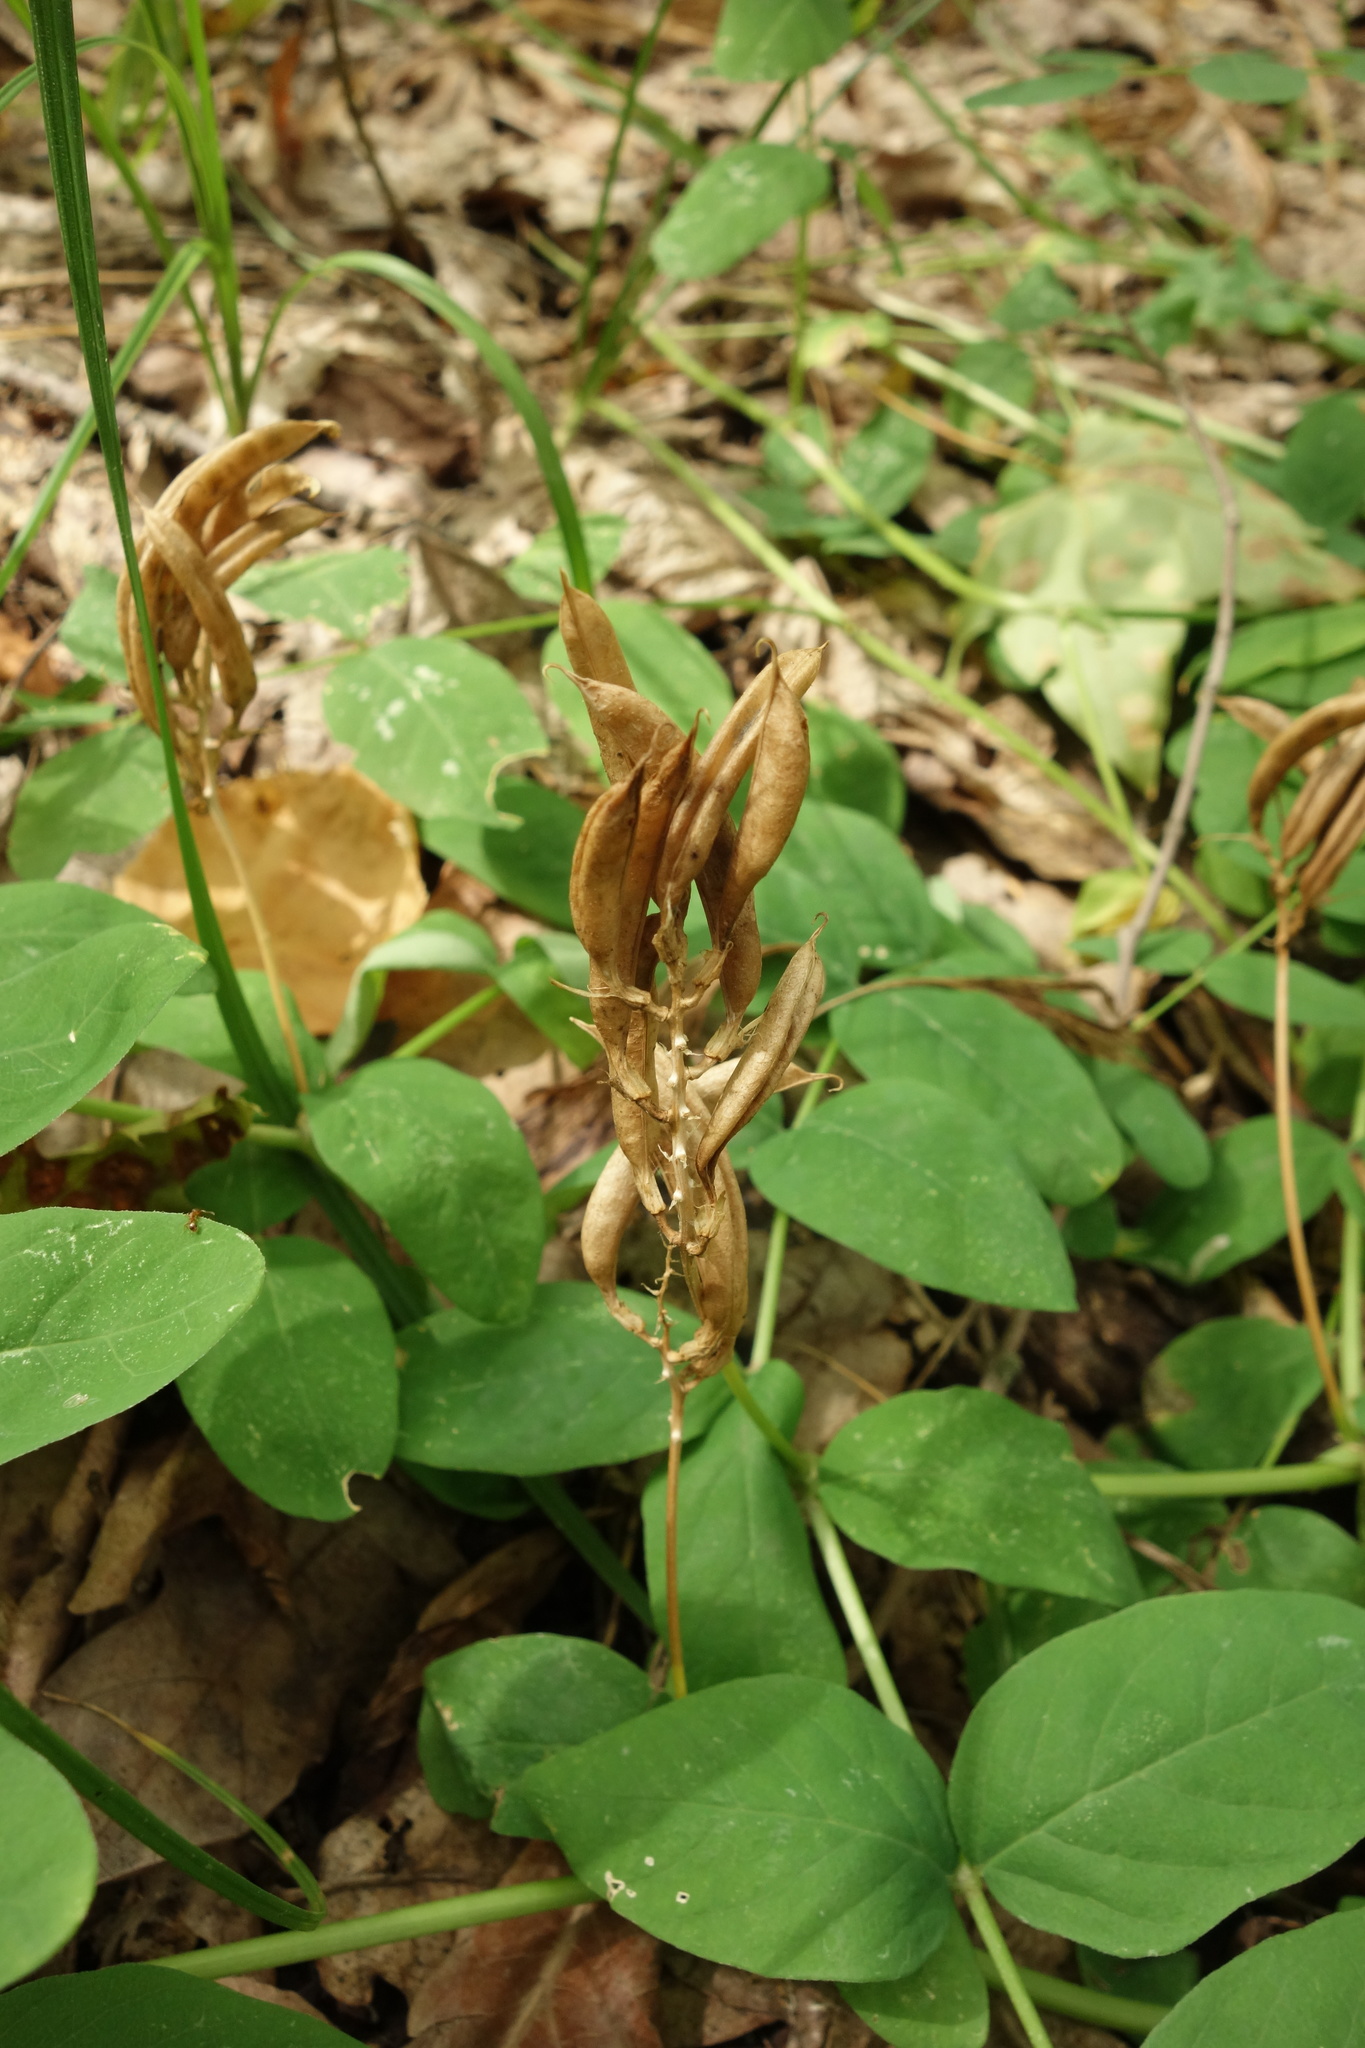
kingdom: Plantae
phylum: Tracheophyta
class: Magnoliopsida
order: Fabales
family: Fabaceae
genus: Astragalus
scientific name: Astragalus glycyphyllos
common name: Wild liquorice
